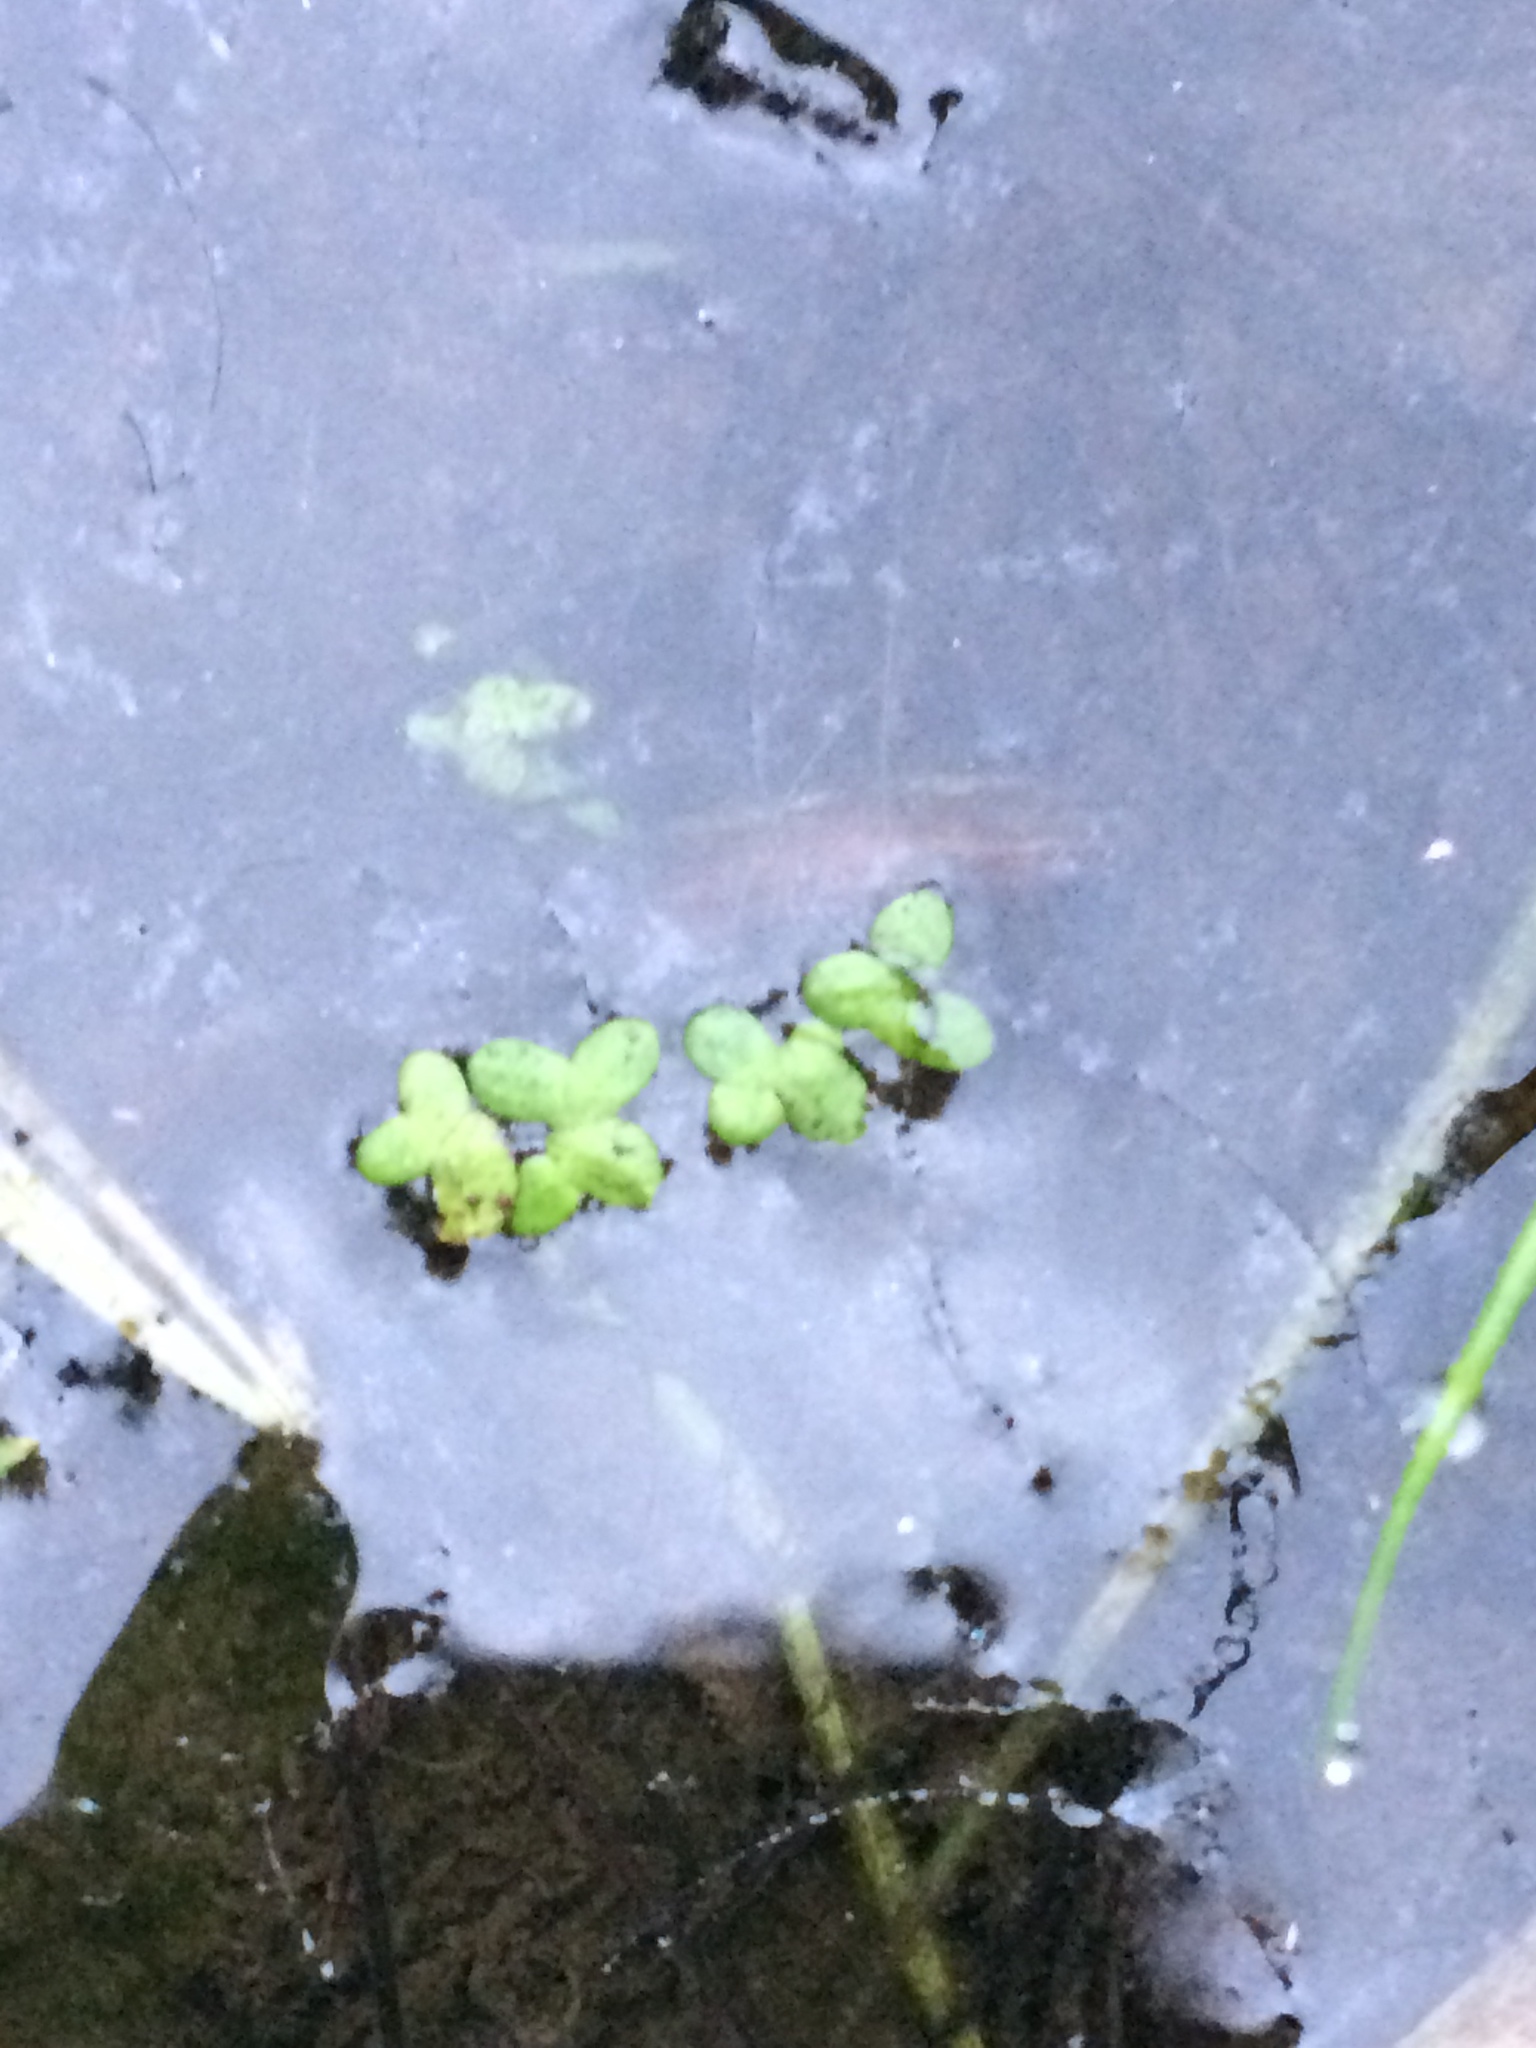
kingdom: Plantae
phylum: Tracheophyta
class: Liliopsida
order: Alismatales
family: Araceae
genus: Lemna
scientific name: Lemna minor
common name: Common duckweed
